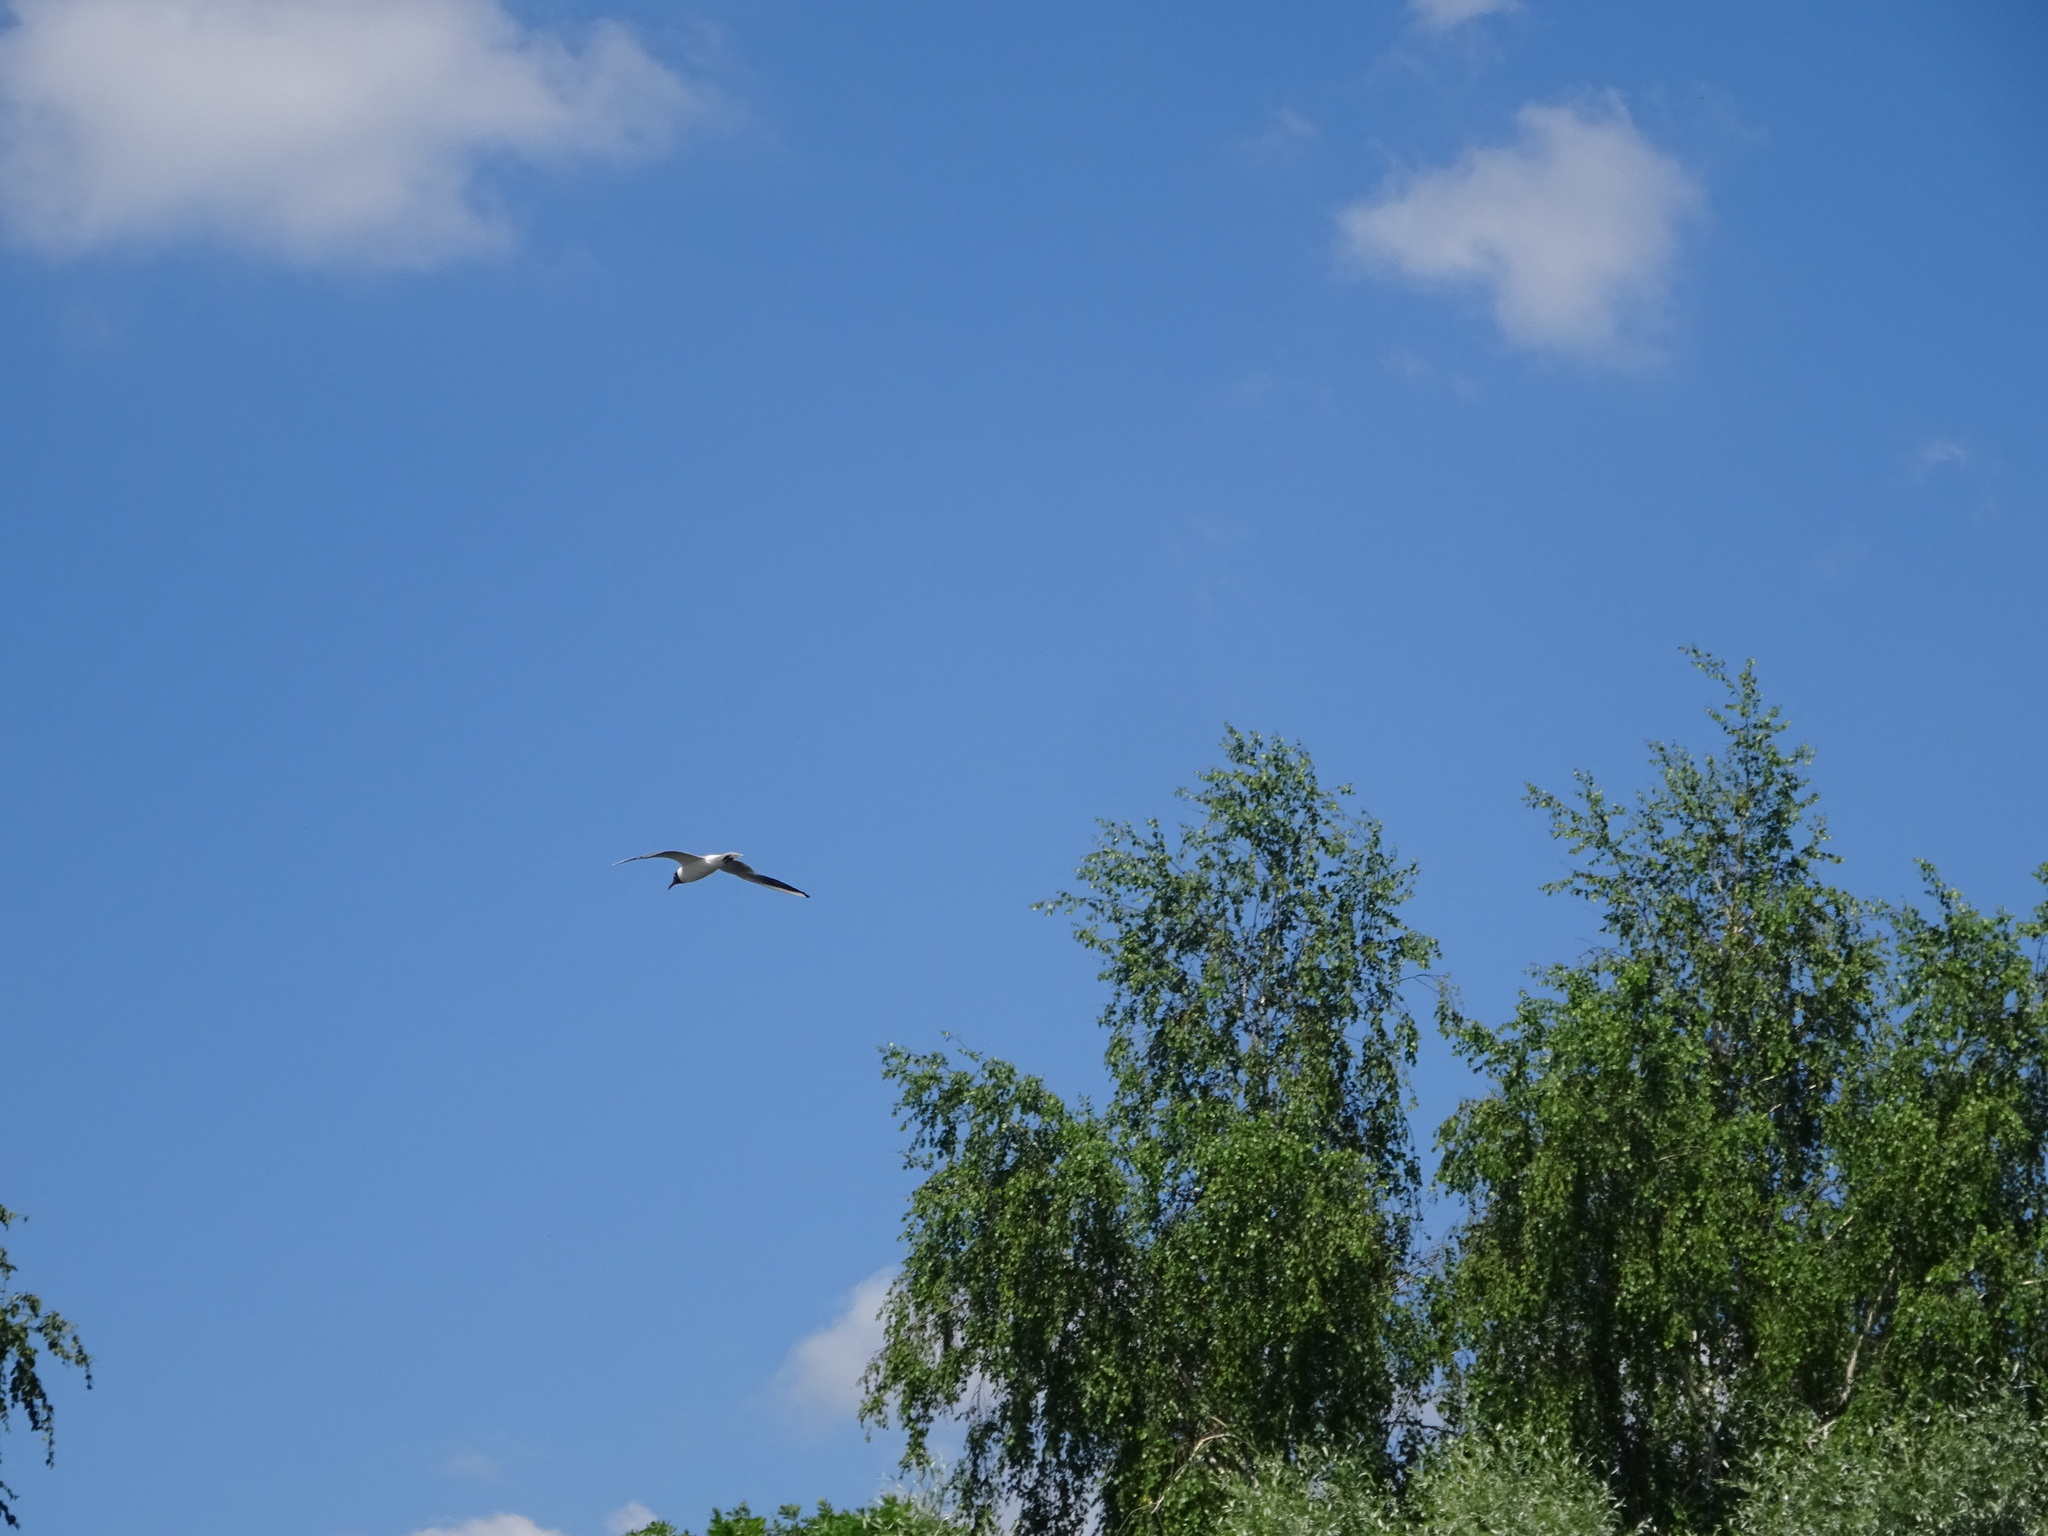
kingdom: Animalia
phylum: Chordata
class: Aves
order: Charadriiformes
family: Laridae
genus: Chroicocephalus
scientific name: Chroicocephalus ridibundus
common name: Black-headed gull
